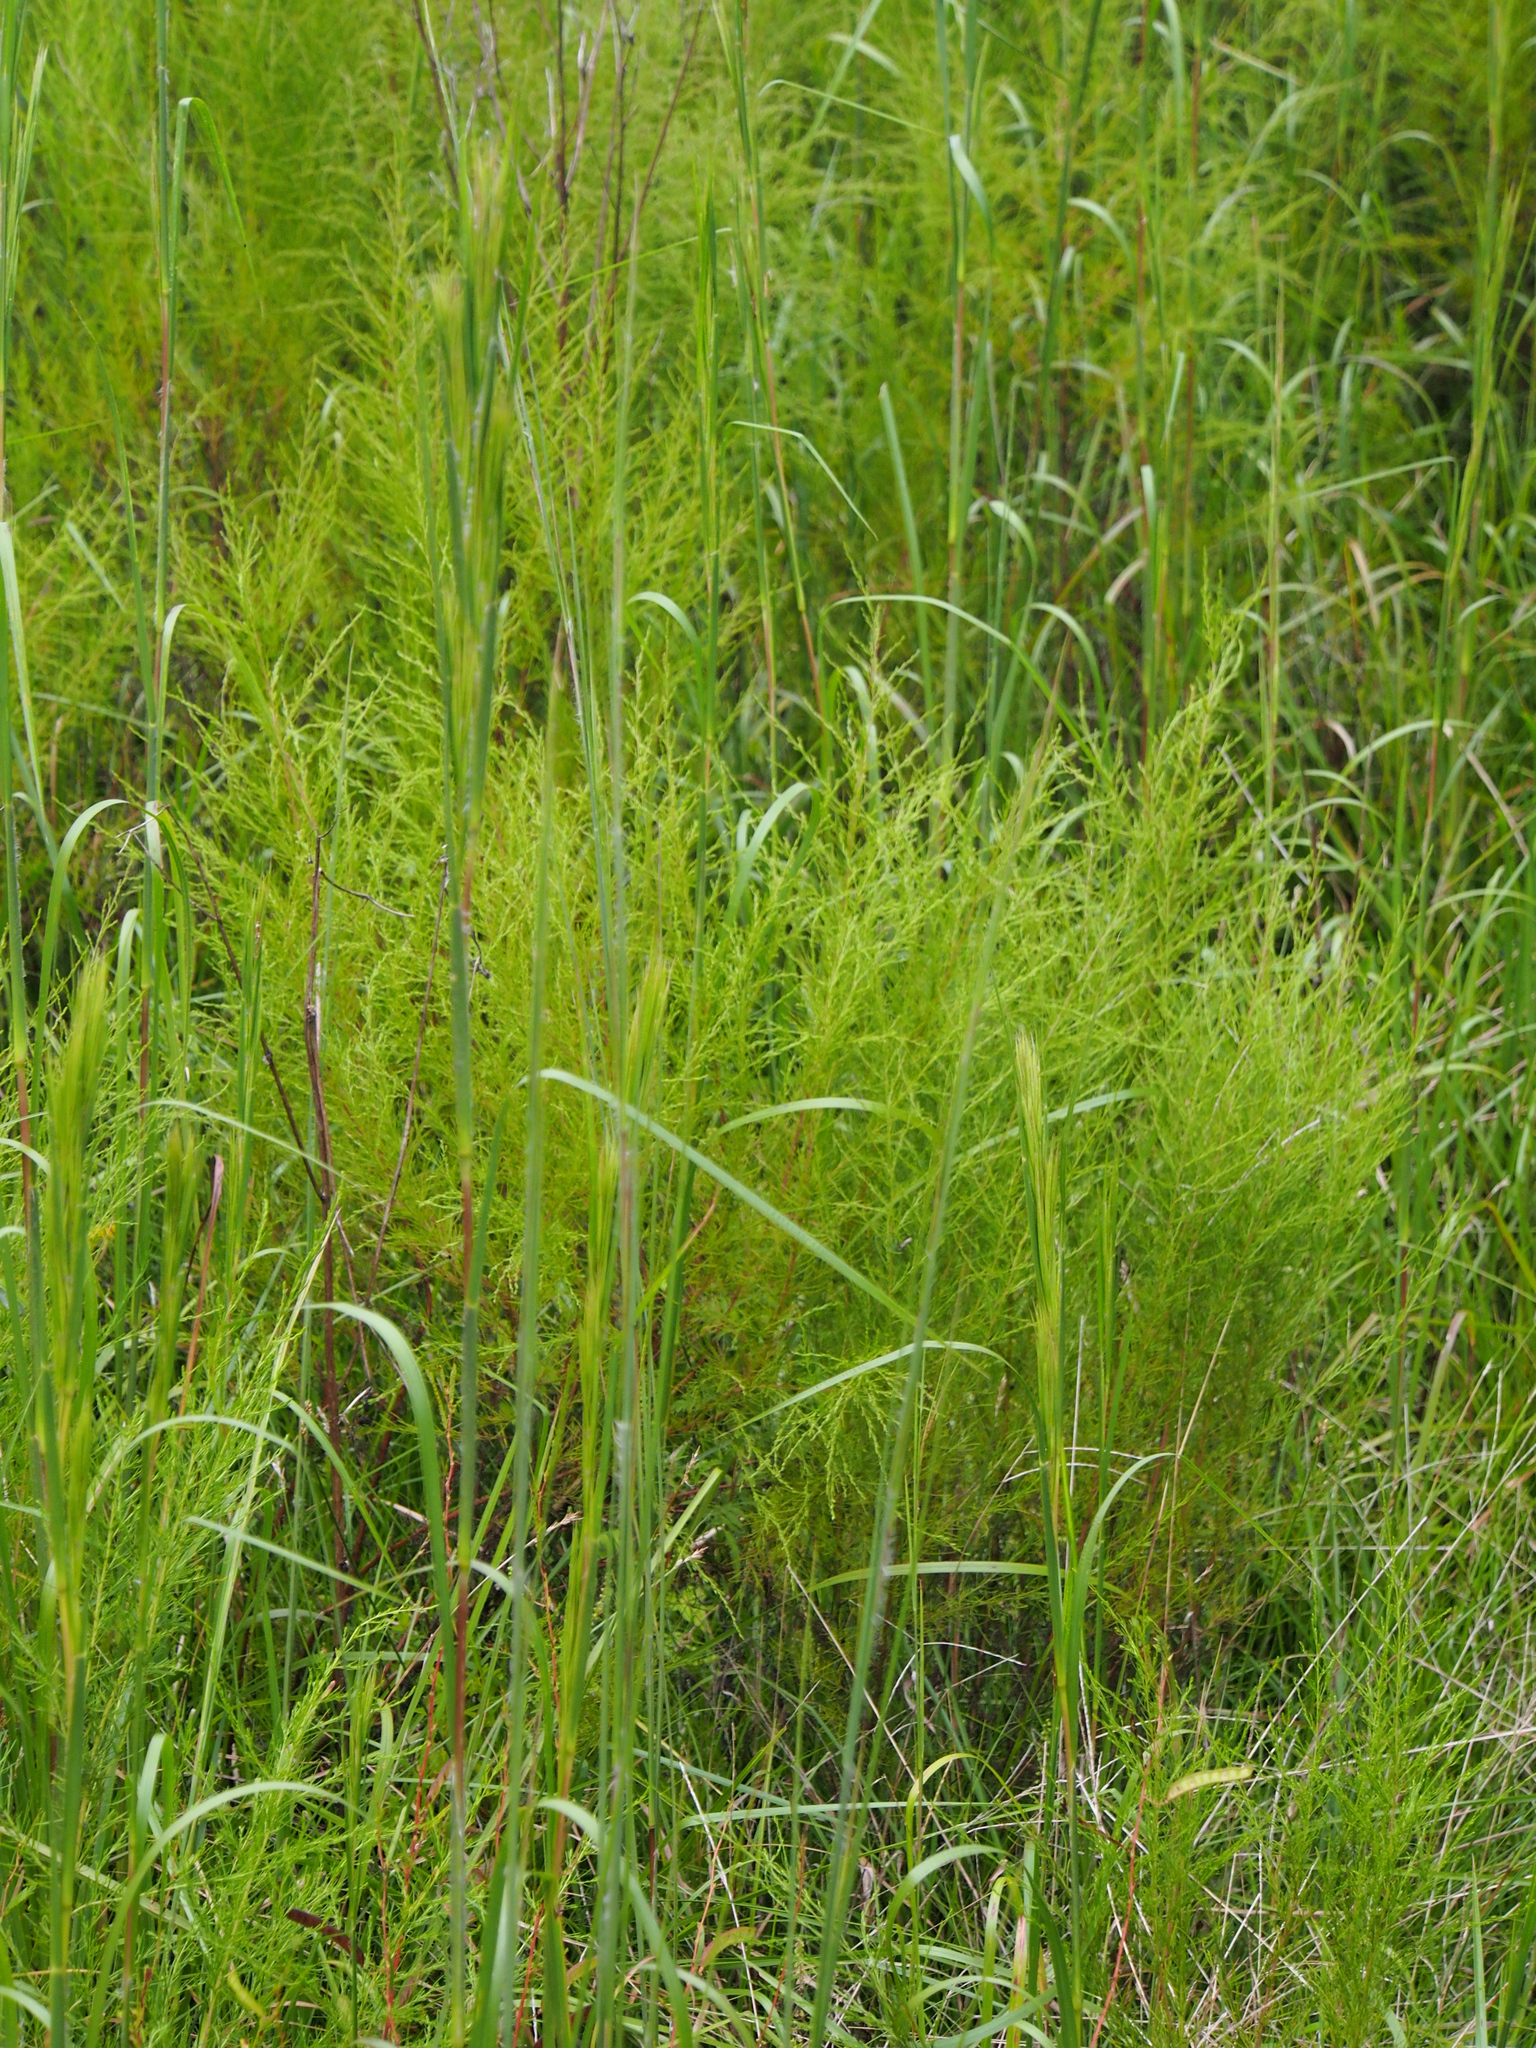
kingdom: Plantae
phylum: Tracheophyta
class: Magnoliopsida
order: Asterales
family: Asteraceae
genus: Eupatorium
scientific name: Eupatorium leptophyllum
